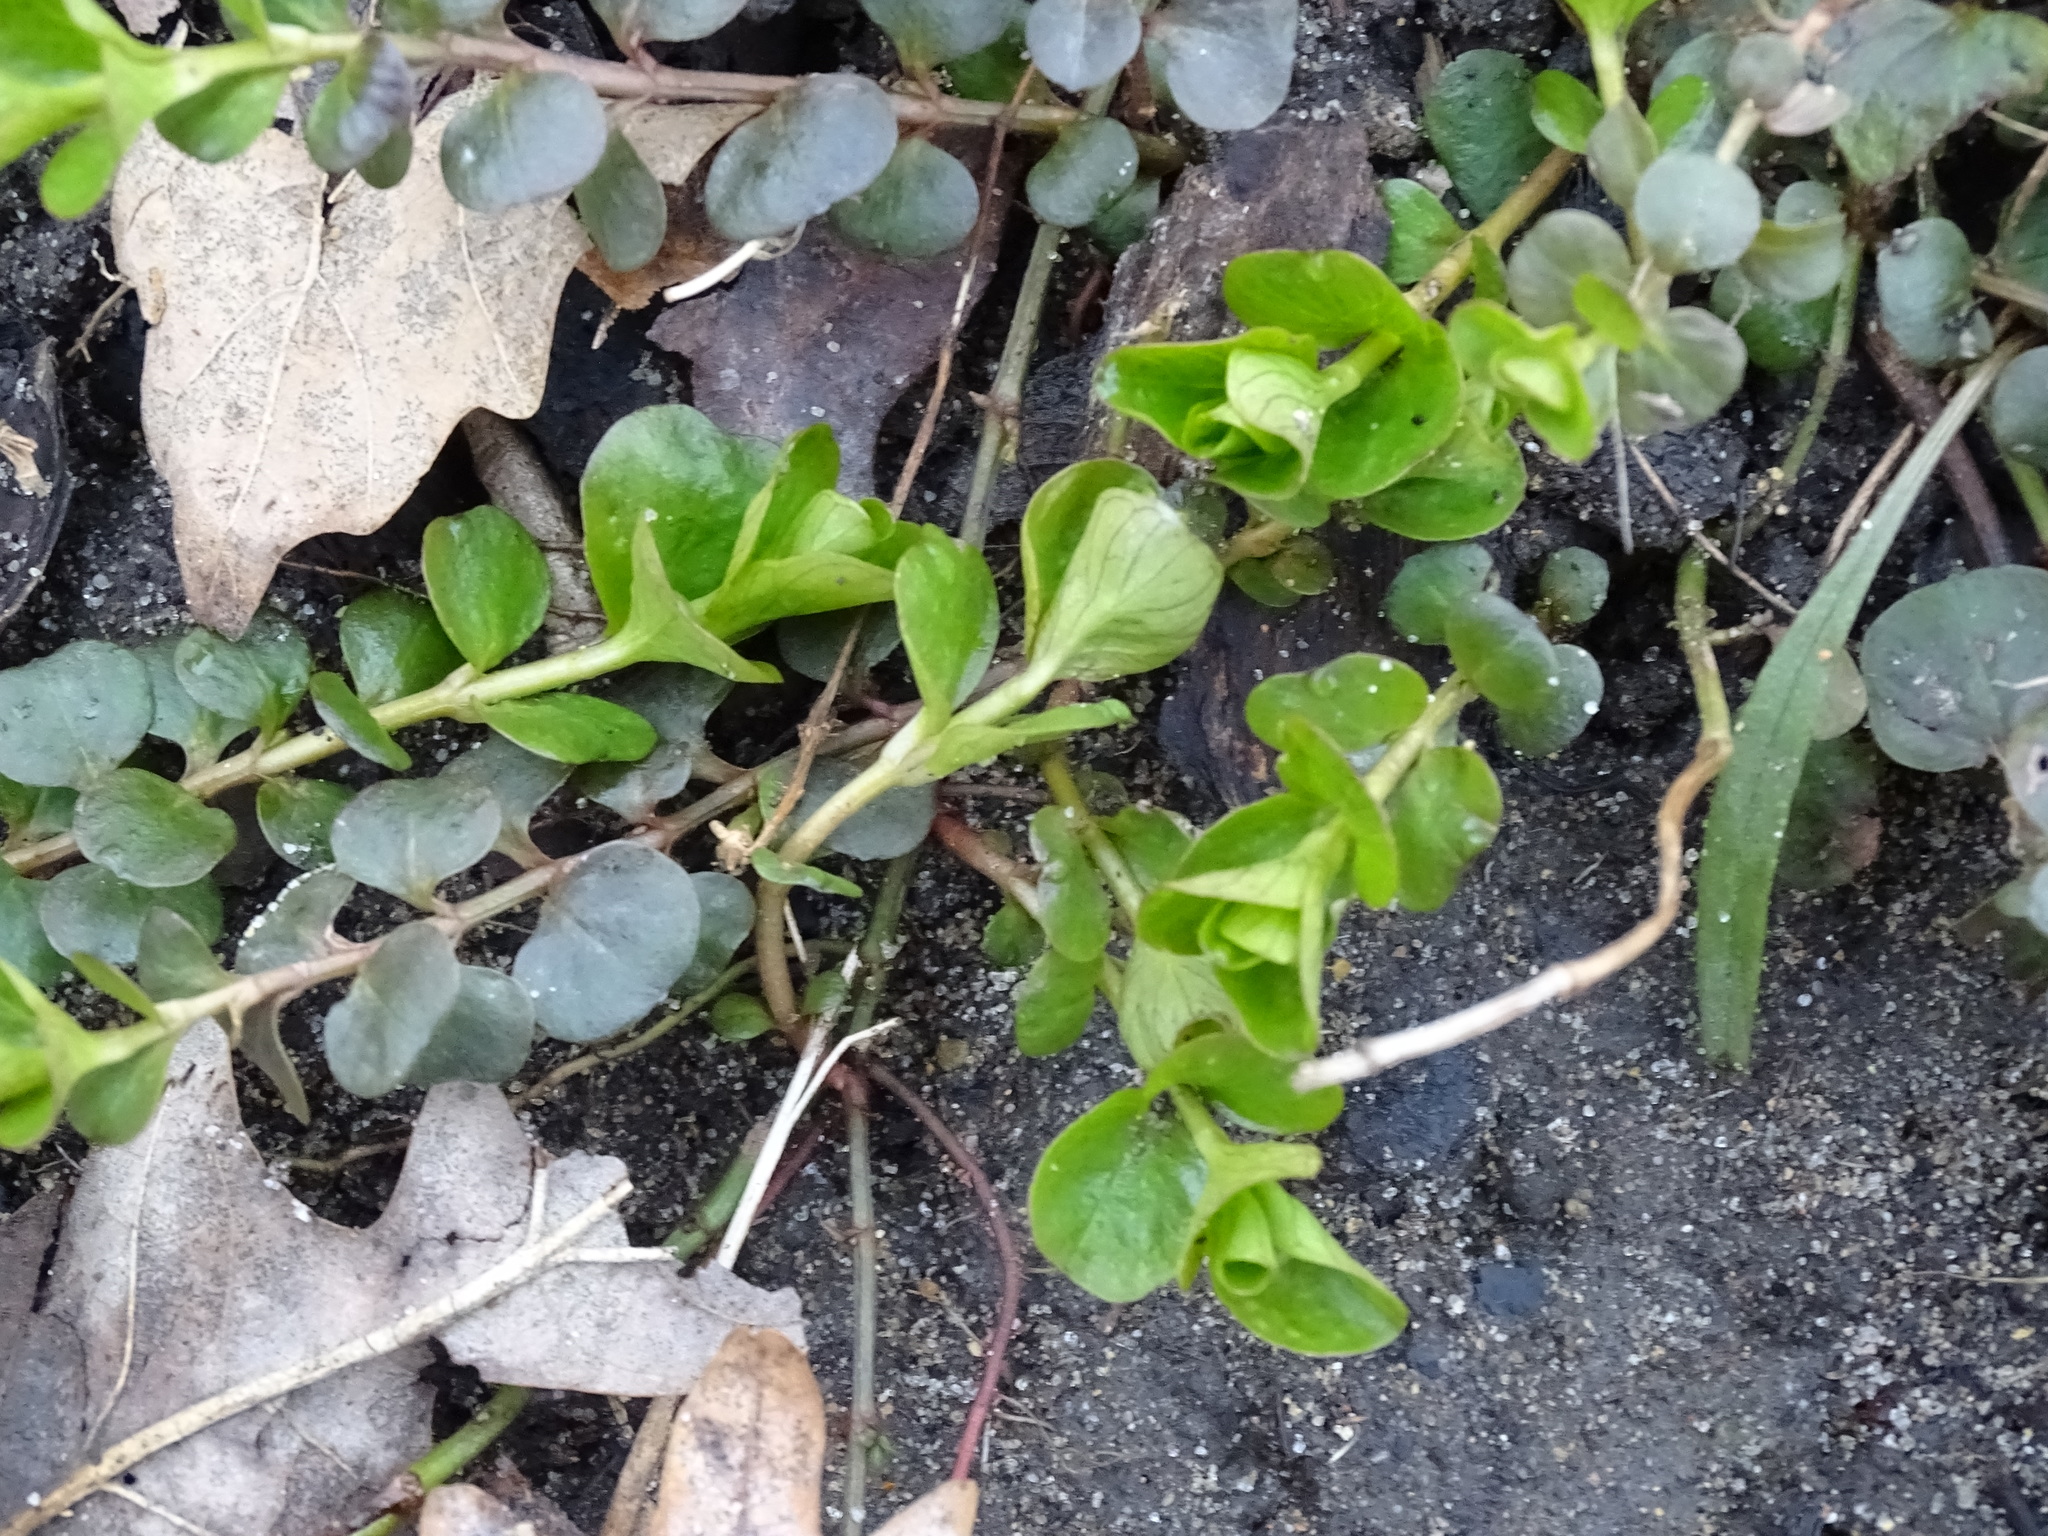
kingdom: Plantae
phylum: Tracheophyta
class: Magnoliopsida
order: Ericales
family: Primulaceae
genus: Lysimachia
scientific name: Lysimachia nummularia
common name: Moneywort
